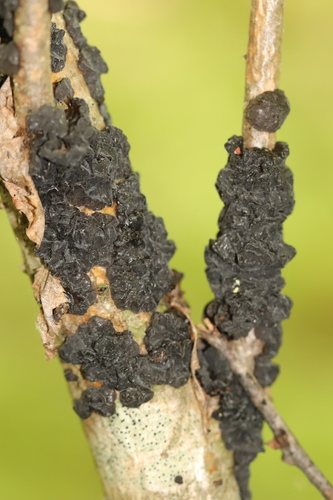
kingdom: Fungi
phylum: Basidiomycota
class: Agaricomycetes
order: Auriculariales
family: Auriculariaceae
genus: Exidia
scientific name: Exidia glandulosa
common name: Witches' butter
